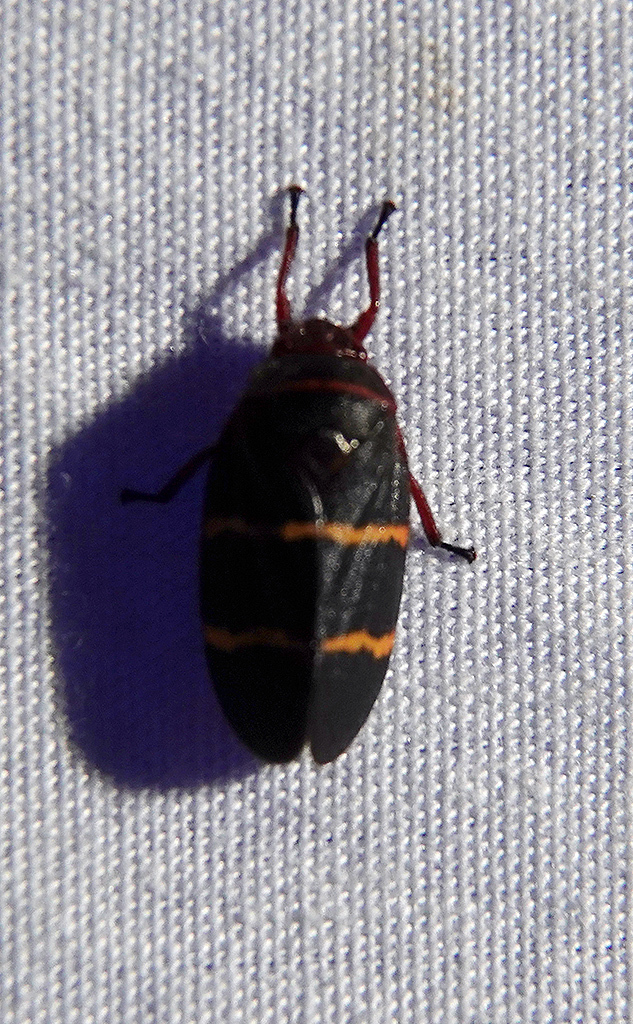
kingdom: Animalia
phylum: Arthropoda
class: Insecta
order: Hemiptera
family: Cercopidae
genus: Prosapia
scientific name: Prosapia bicincta
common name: Twolined spittlebug
